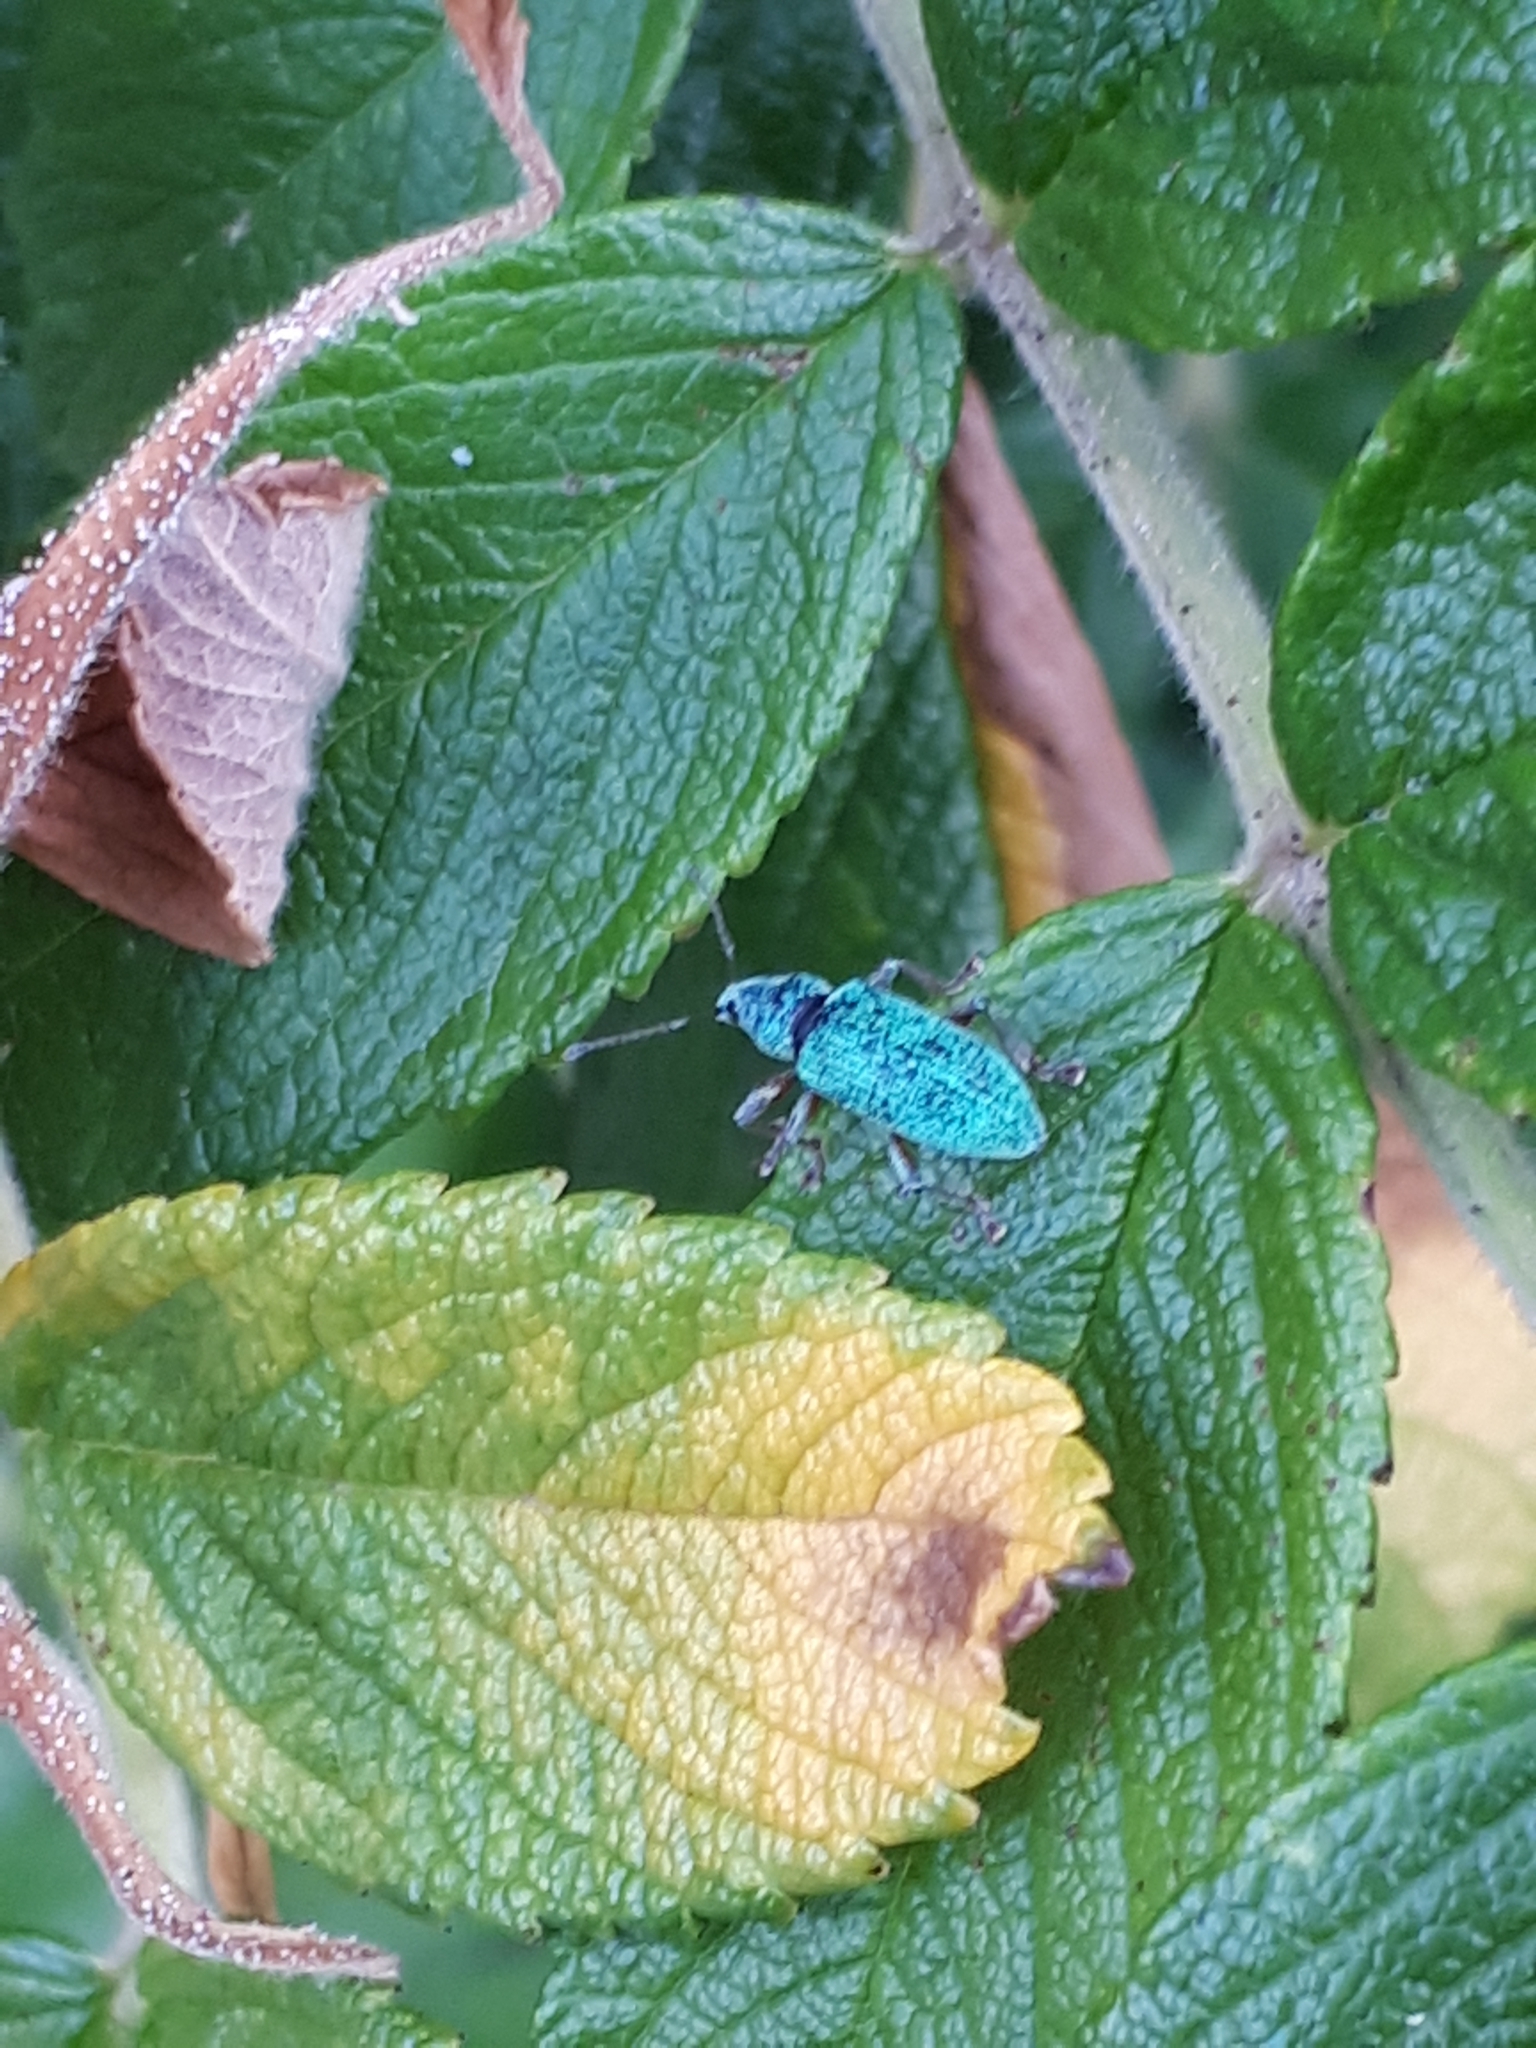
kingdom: Animalia
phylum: Arthropoda
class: Insecta
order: Coleoptera
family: Curculionidae
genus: Polydrusus
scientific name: Polydrusus formosus
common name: Weevil
